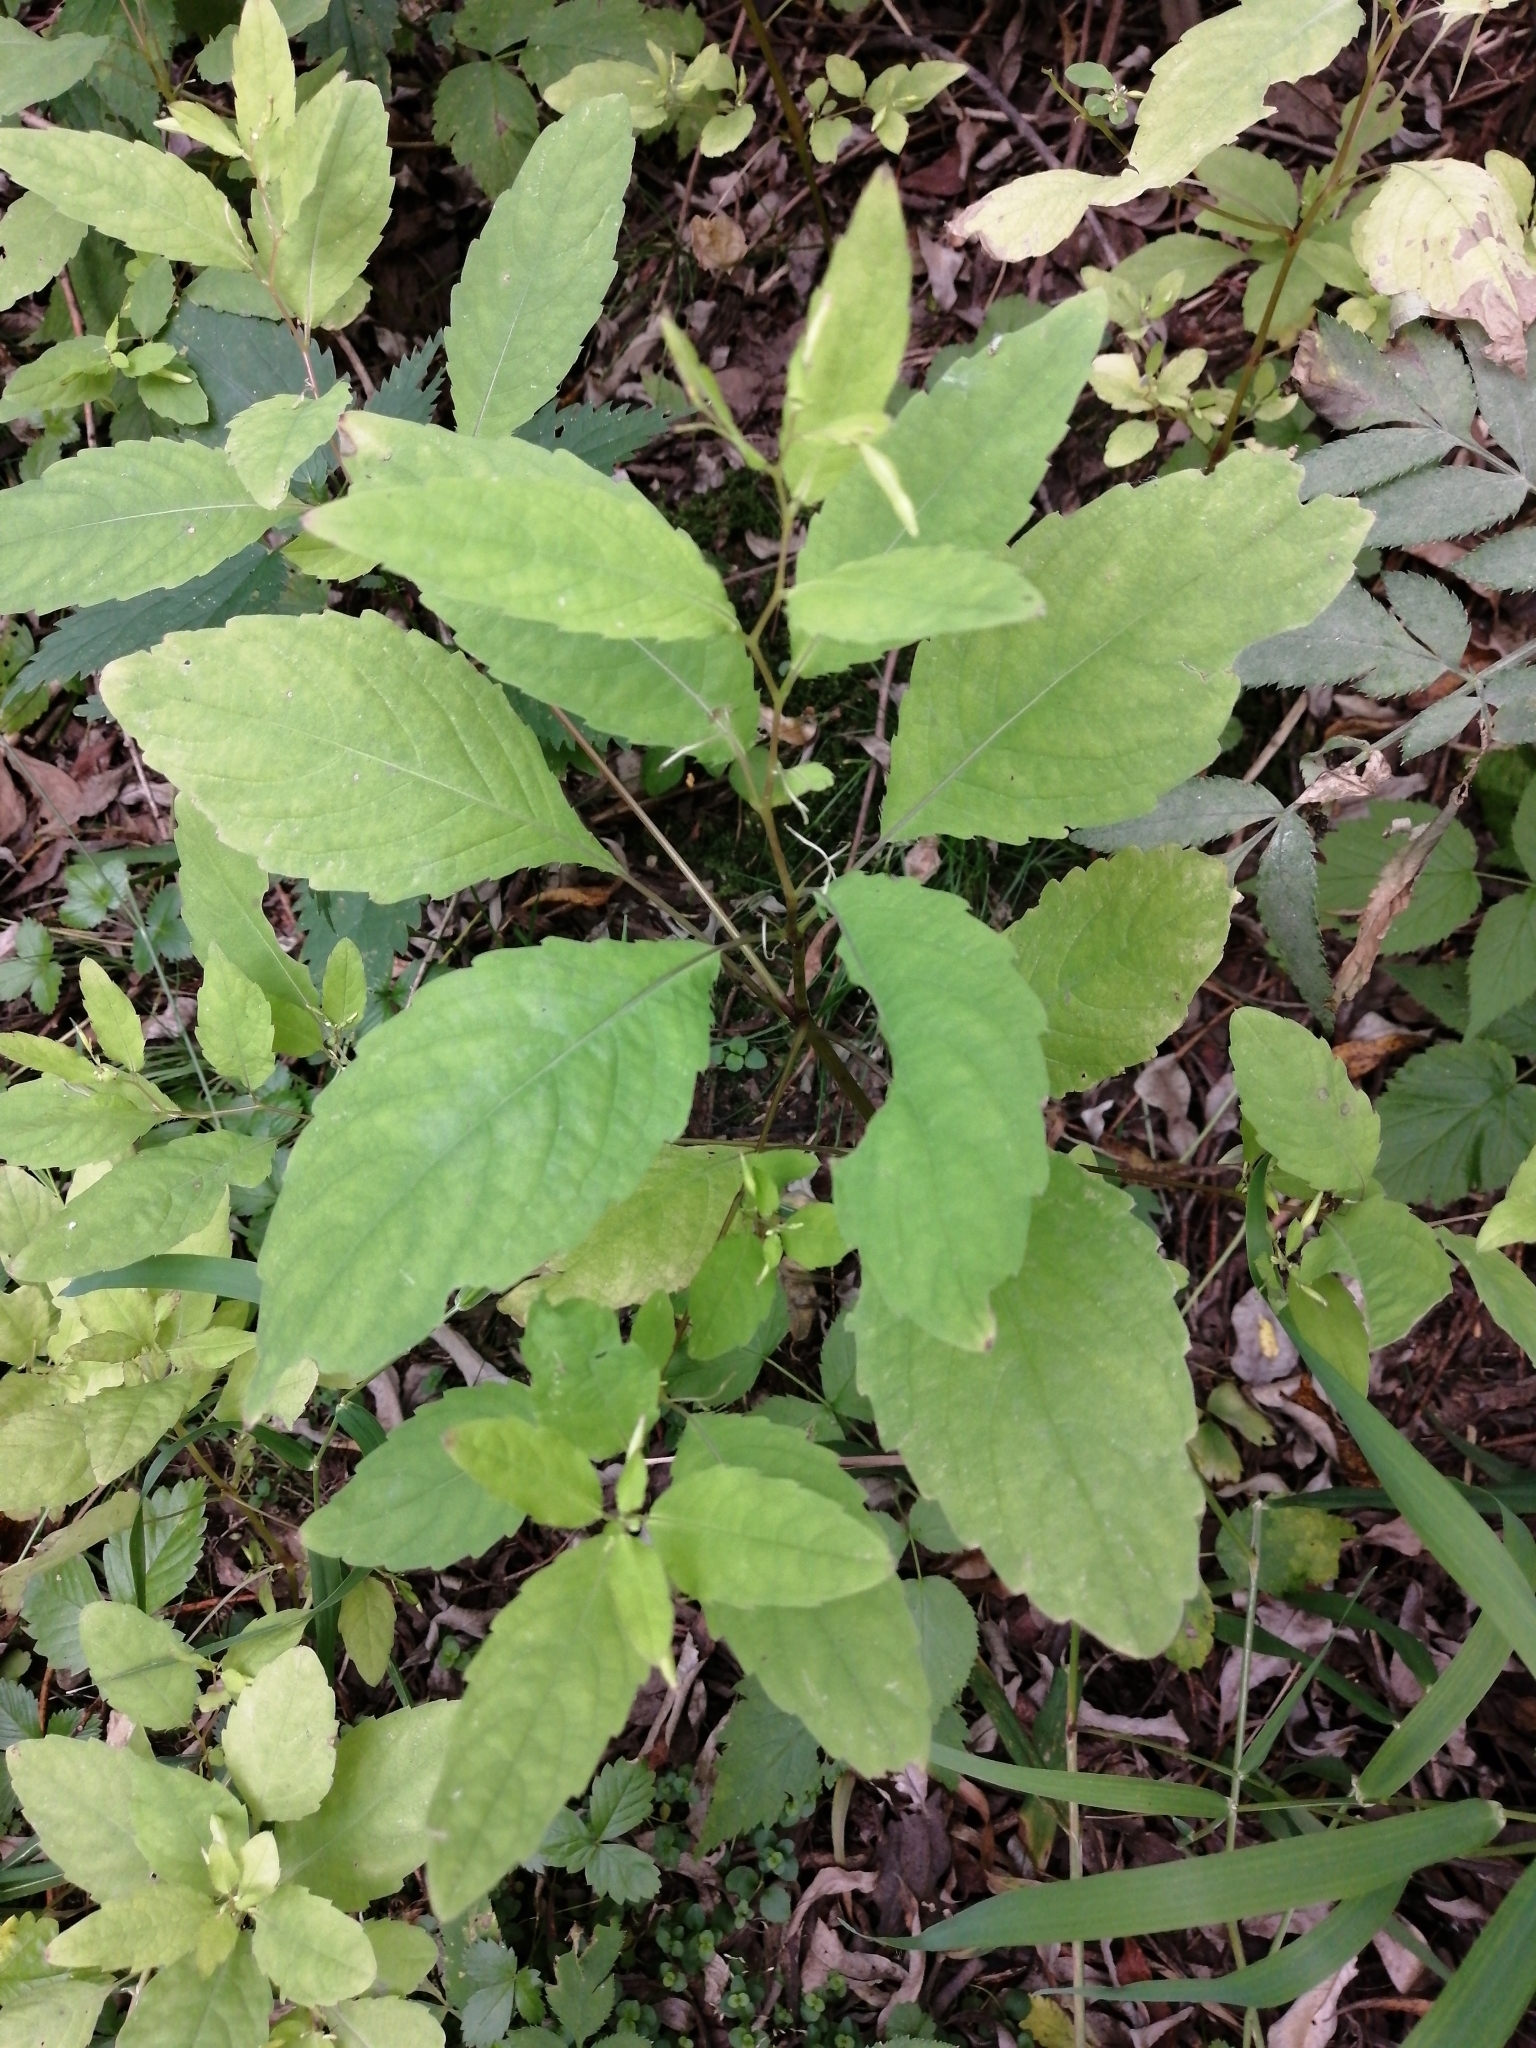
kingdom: Plantae
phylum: Tracheophyta
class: Magnoliopsida
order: Ericales
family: Balsaminaceae
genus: Impatiens
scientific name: Impatiens noli-tangere
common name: Touch-me-not balsam
